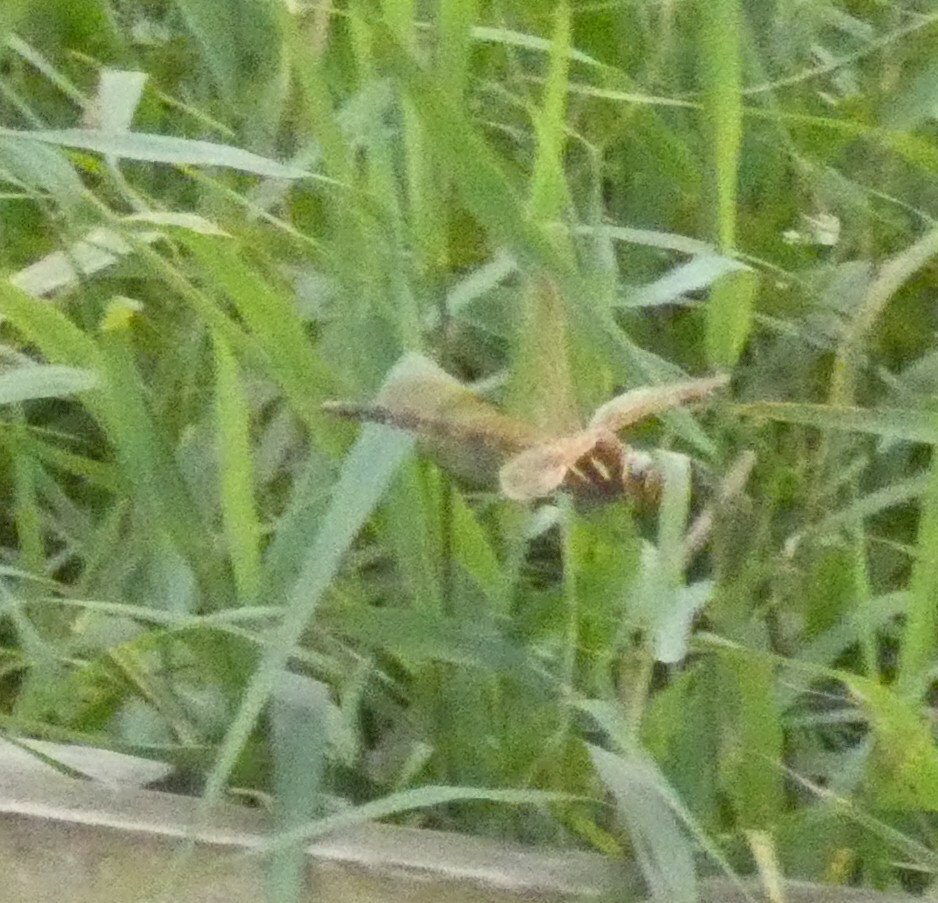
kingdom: Animalia
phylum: Arthropoda
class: Insecta
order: Odonata
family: Aeshnidae
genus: Aeshna
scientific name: Aeshna grandis
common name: Brown hawker
